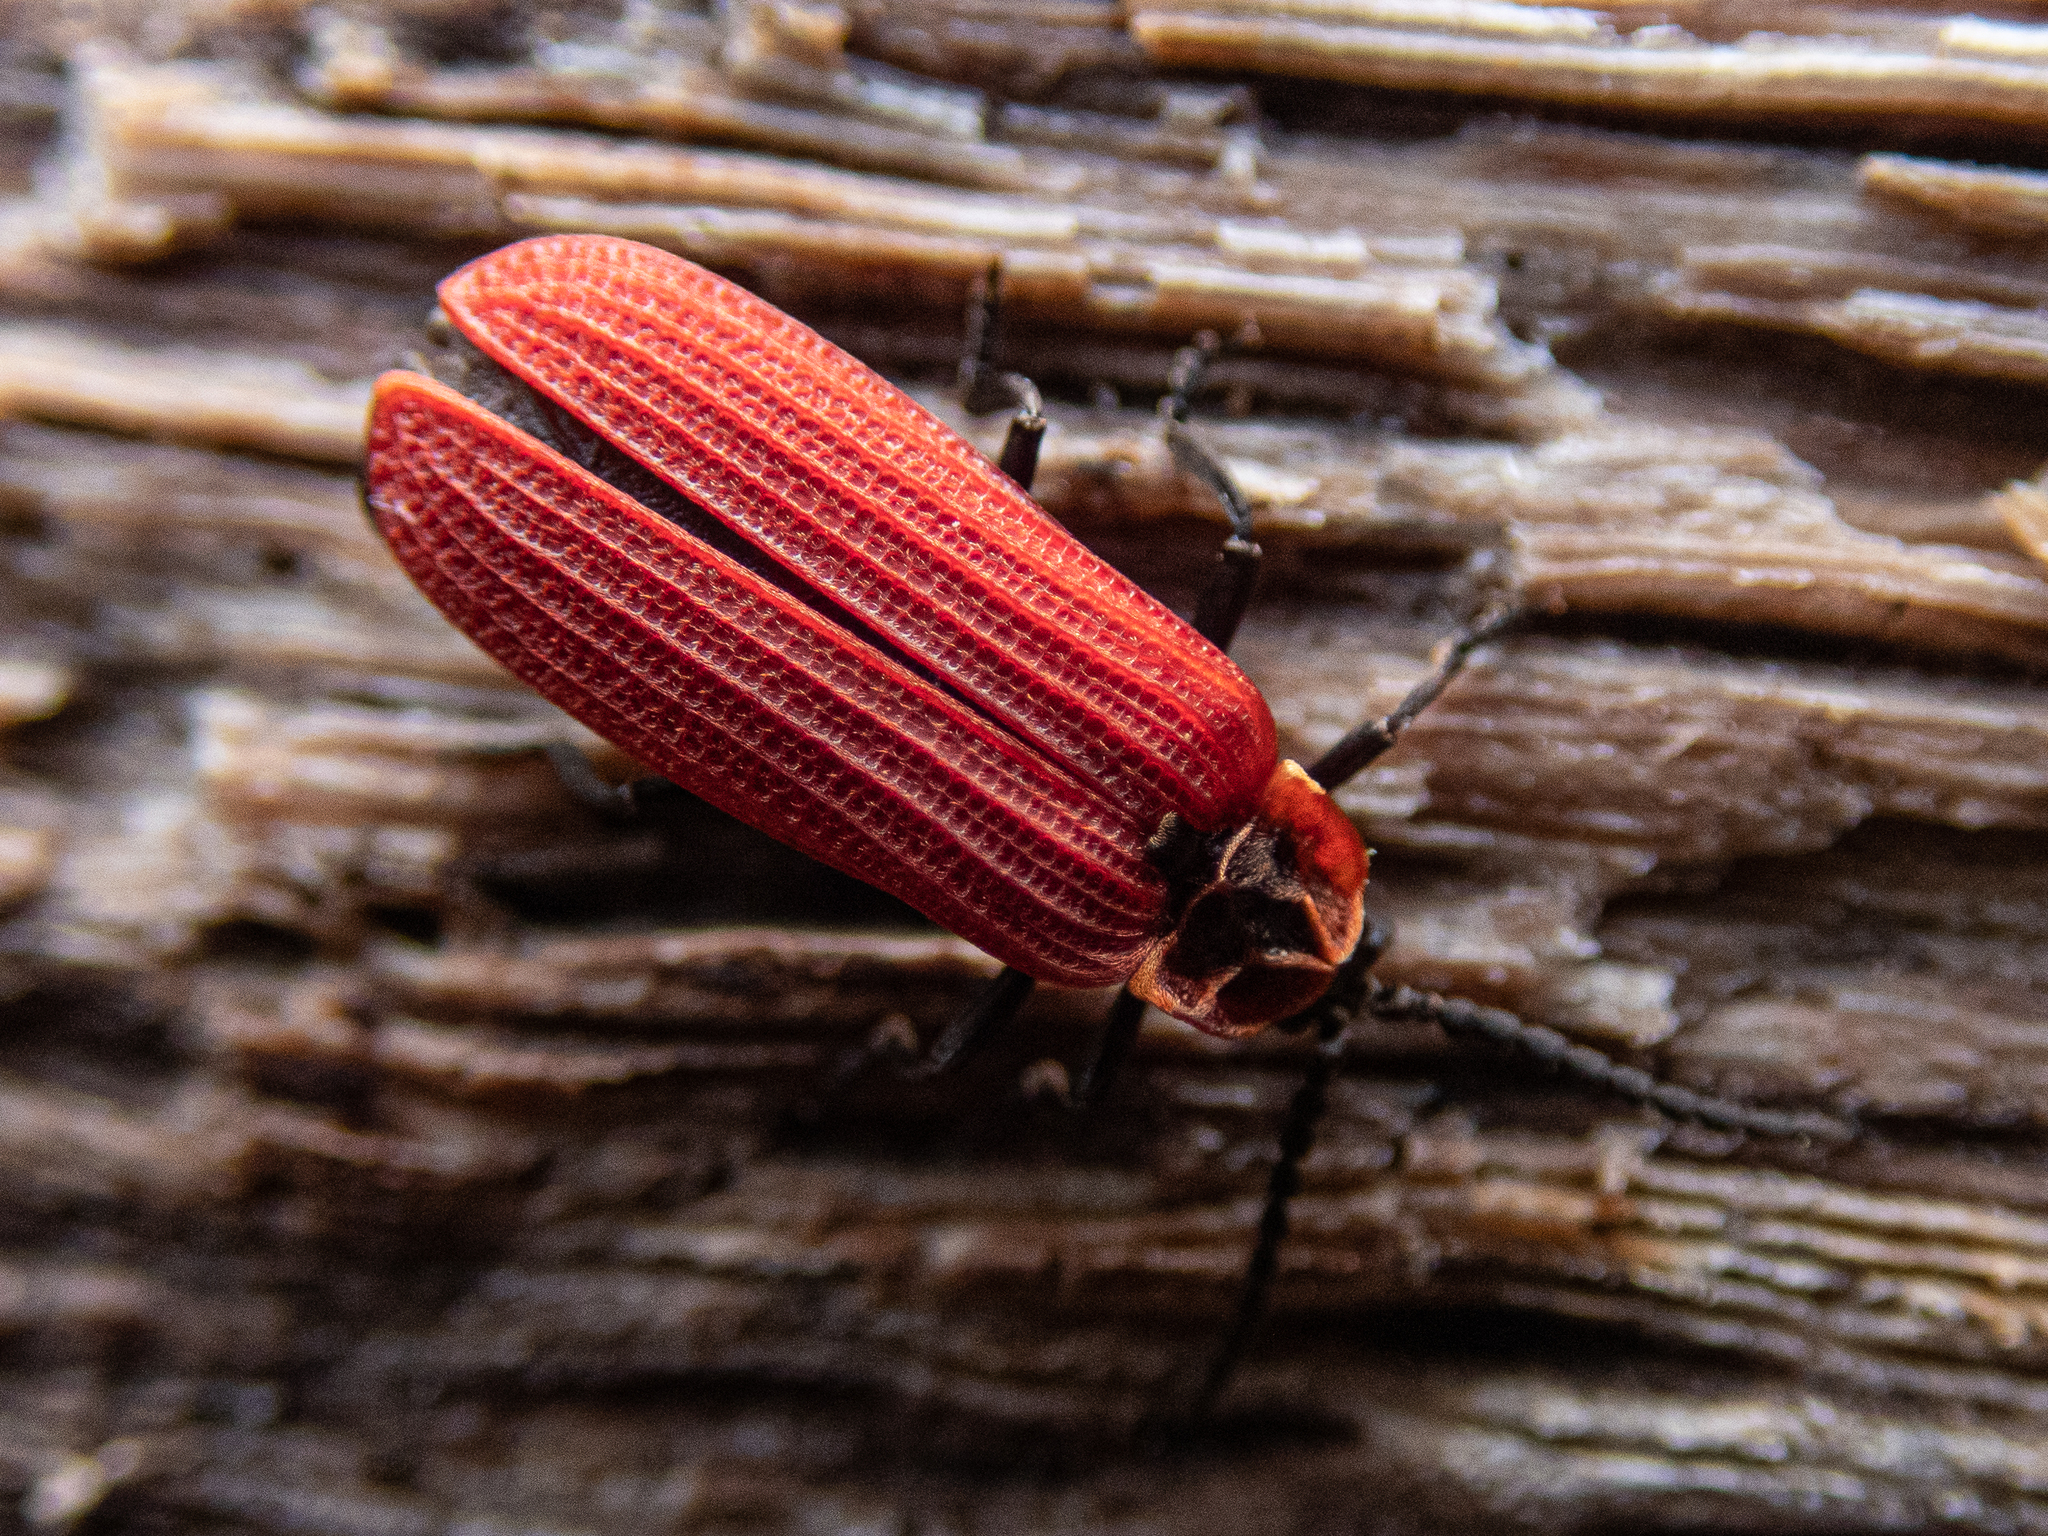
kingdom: Animalia
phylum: Arthropoda
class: Insecta
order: Coleoptera
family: Lycidae
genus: Dictyoptera
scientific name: Dictyoptera aurora
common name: Golden net-winged beetle
